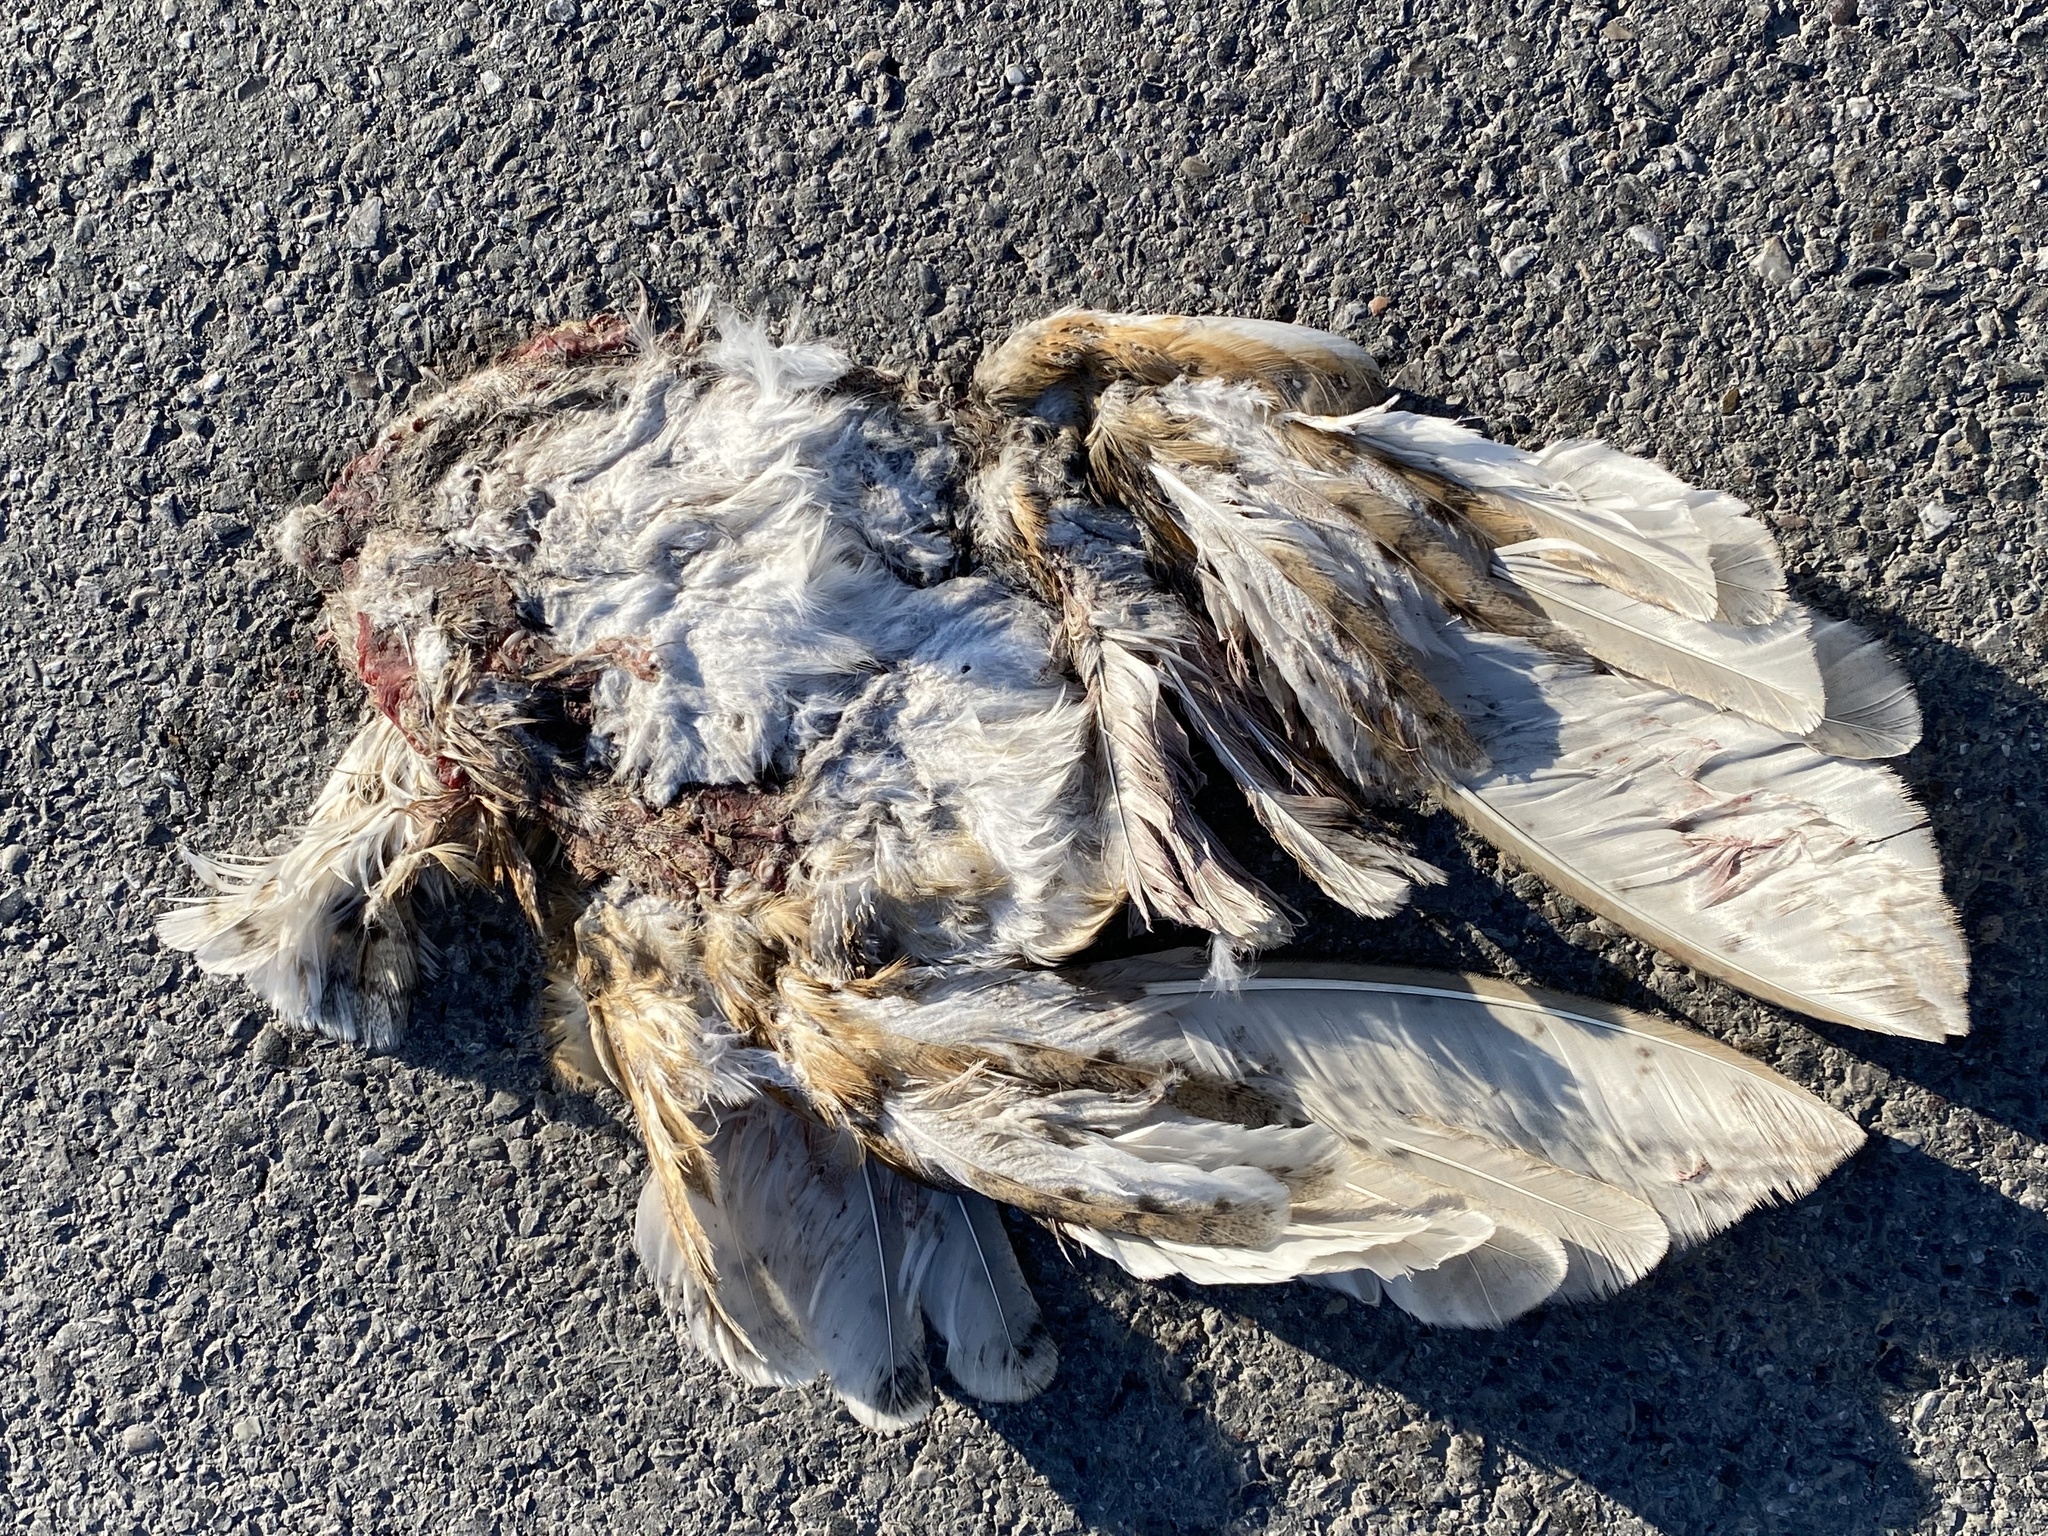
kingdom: Animalia
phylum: Chordata
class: Aves
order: Strigiformes
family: Tytonidae
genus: Tyto
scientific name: Tyto alba
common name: Barn owl
